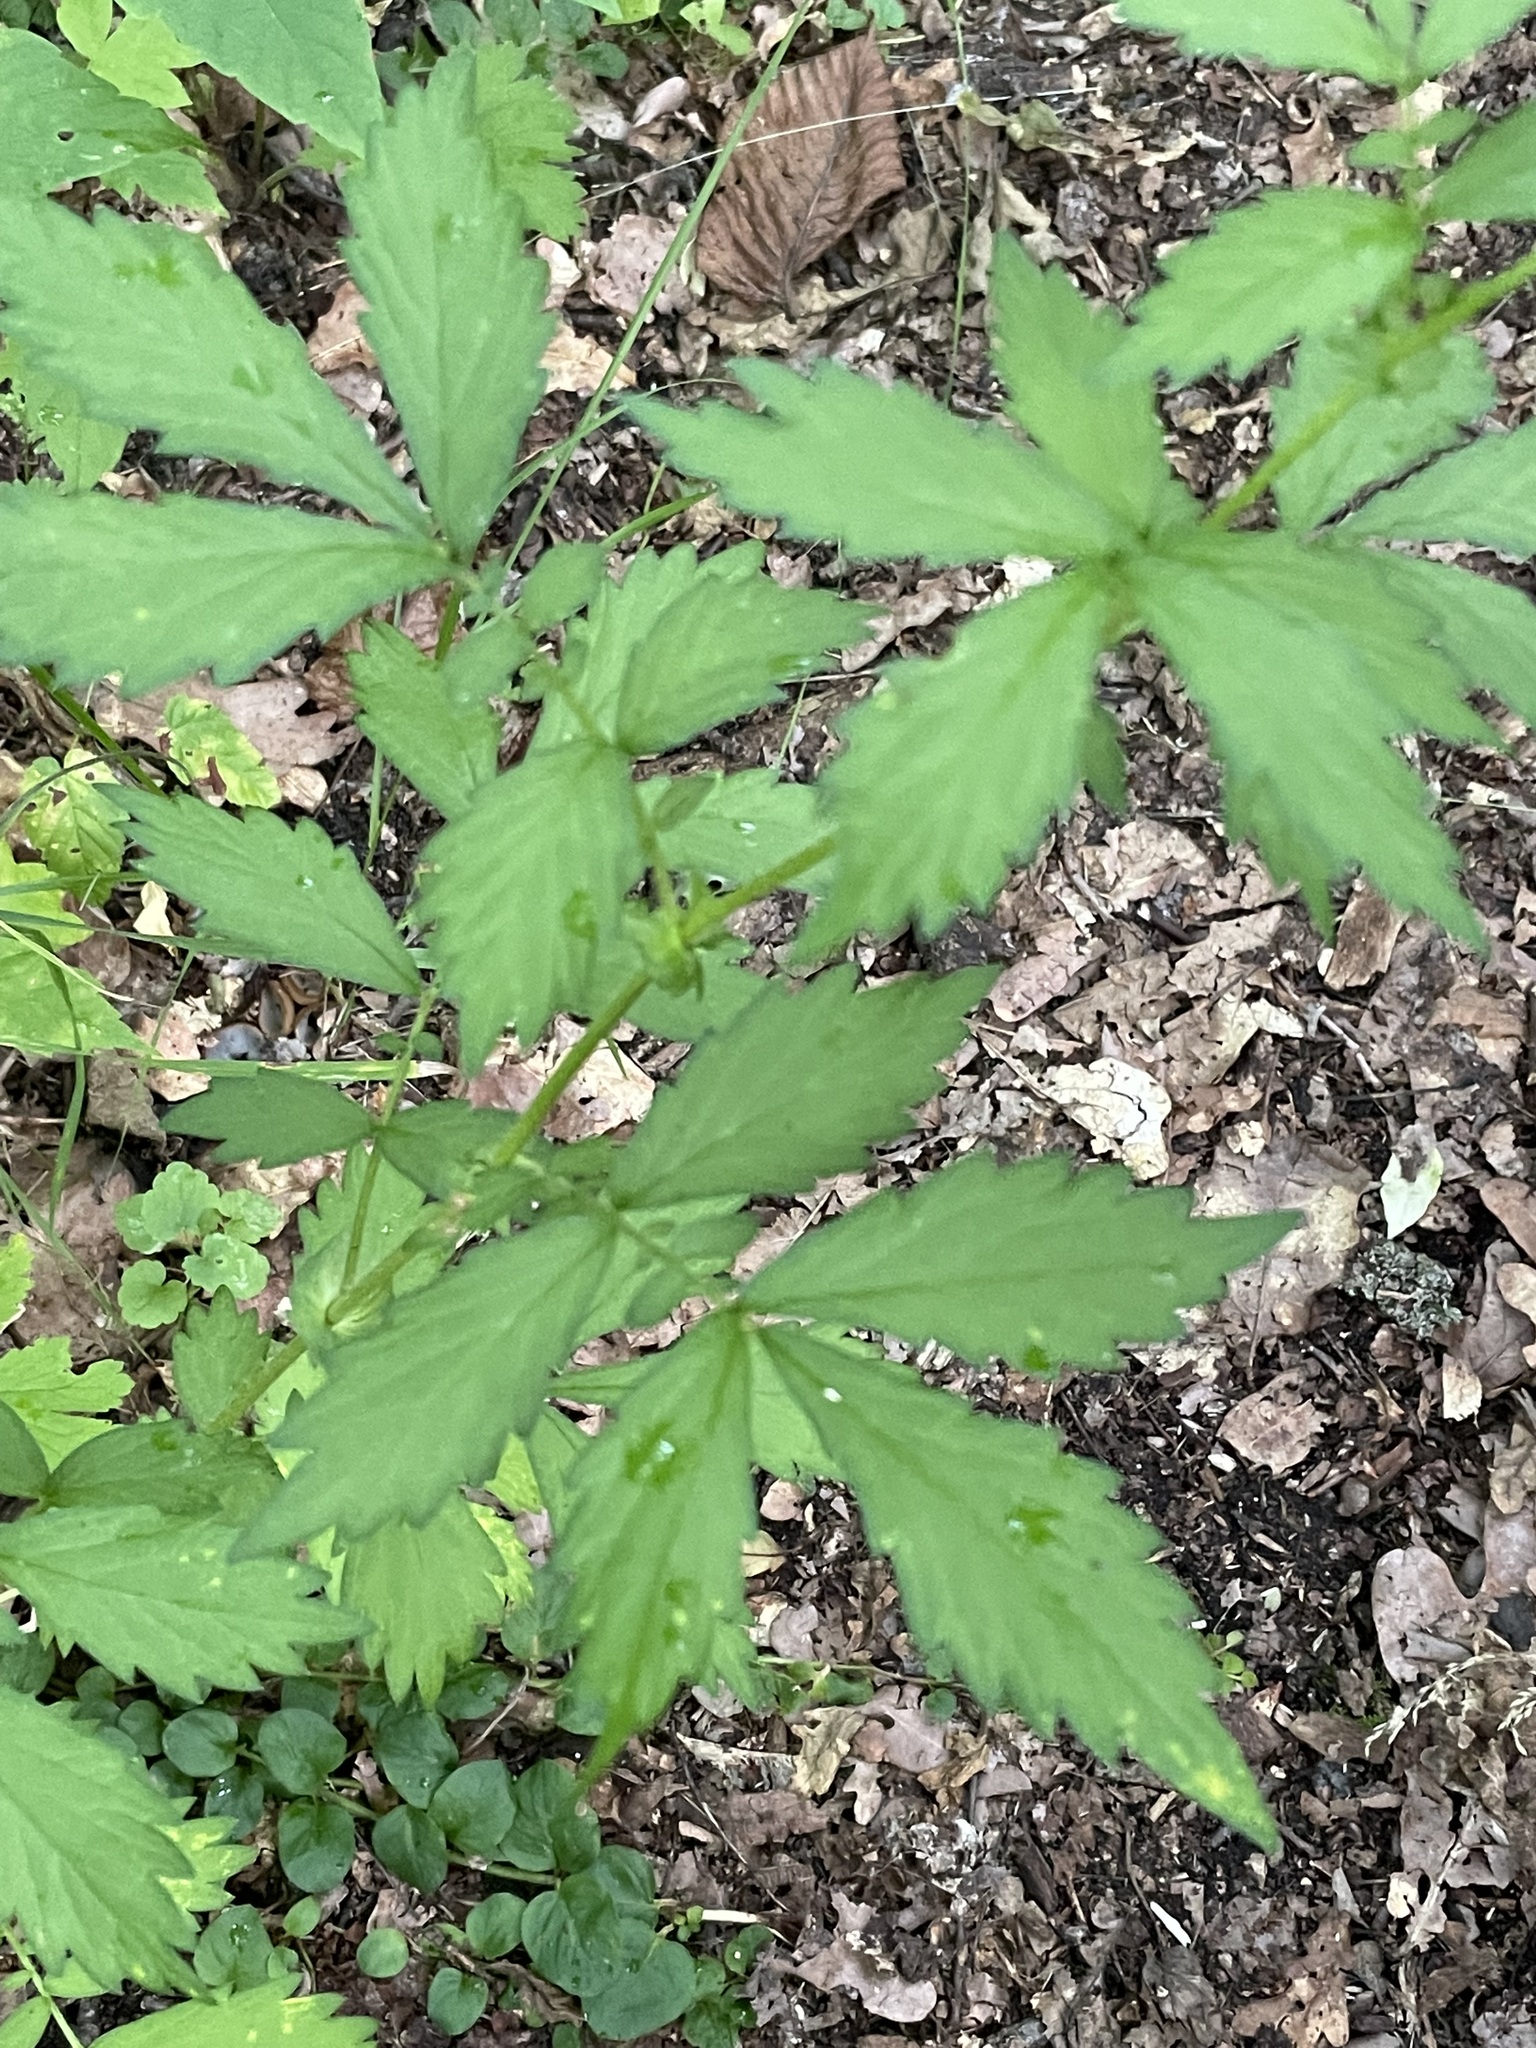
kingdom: Plantae
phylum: Tracheophyta
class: Magnoliopsida
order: Rosales
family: Rosaceae
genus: Agrimonia
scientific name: Agrimonia pilosa
